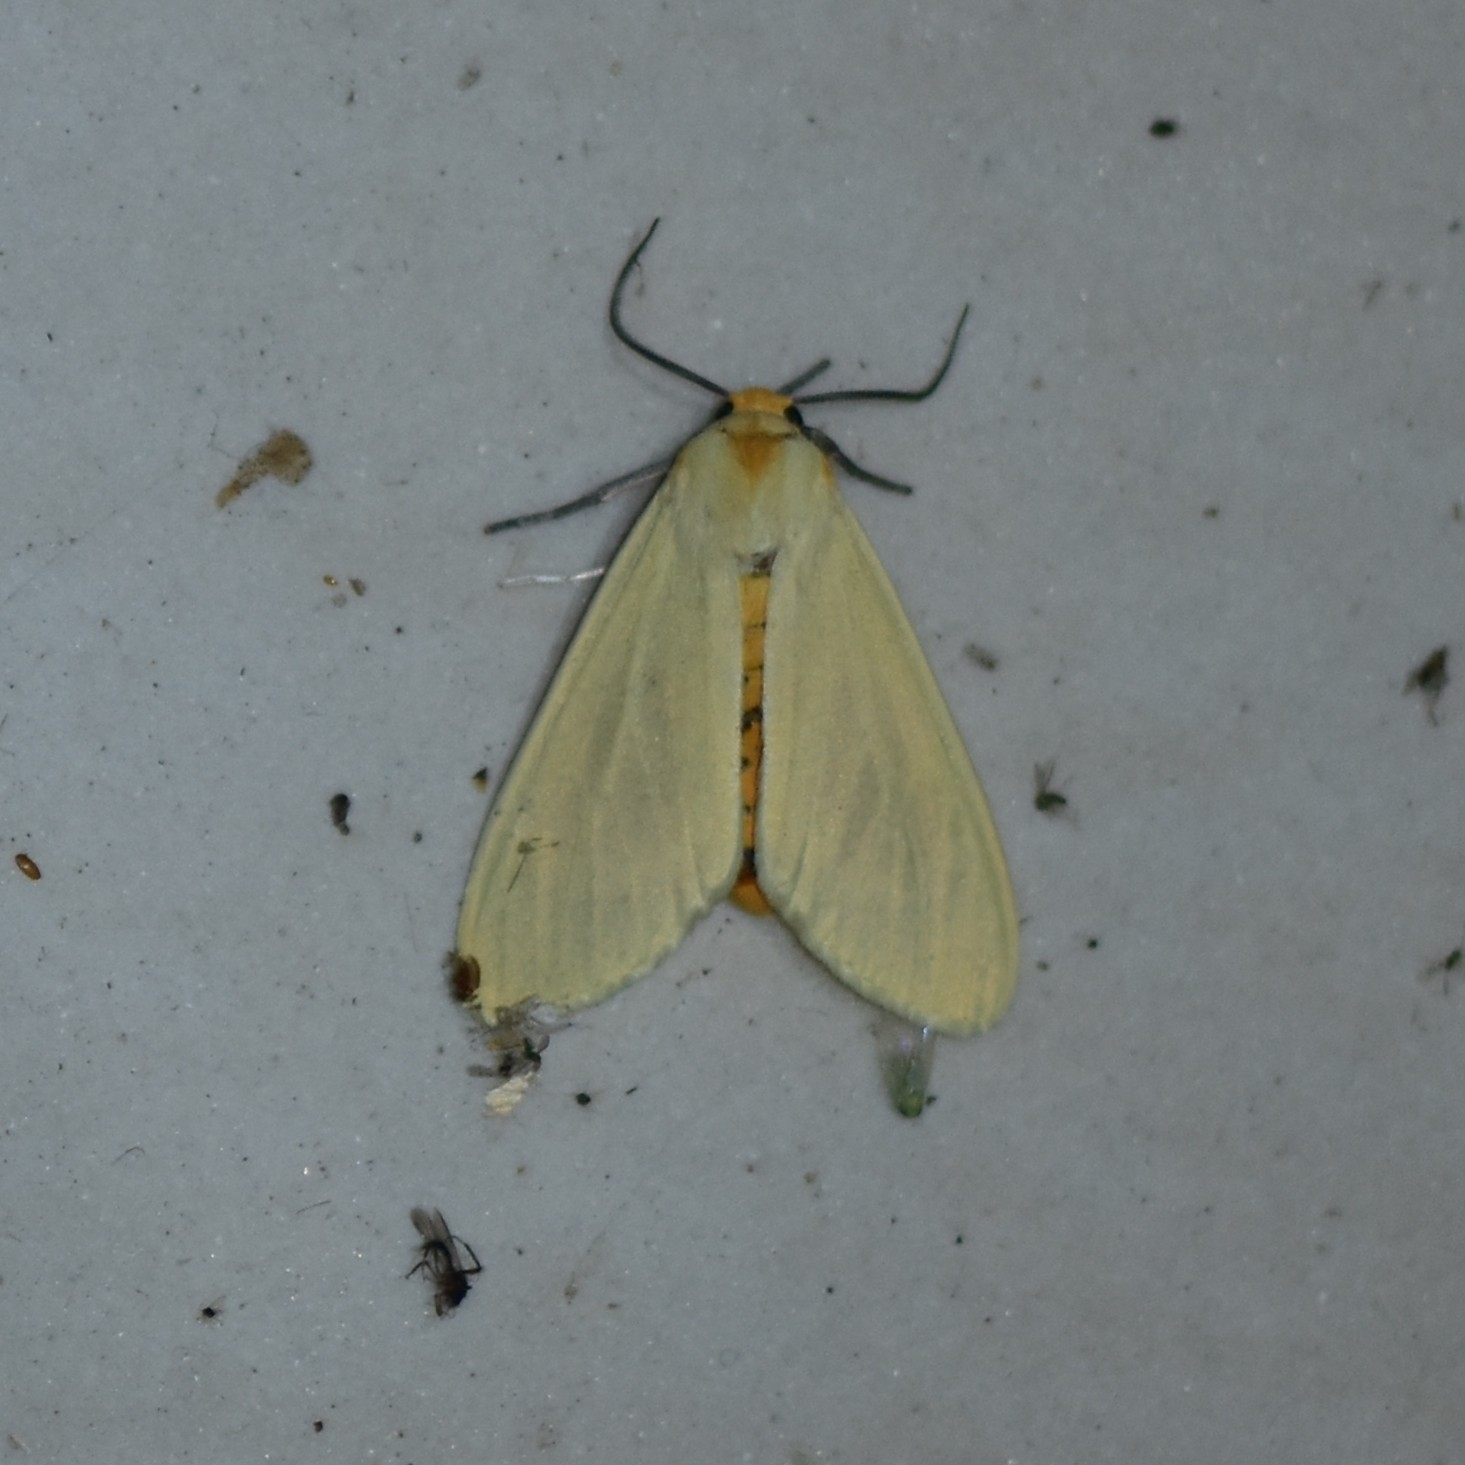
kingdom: Animalia
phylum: Arthropoda
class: Insecta
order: Lepidoptera
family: Erebidae
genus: Pareuchaetes
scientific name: Pareuchaetes pseudoinsulata
